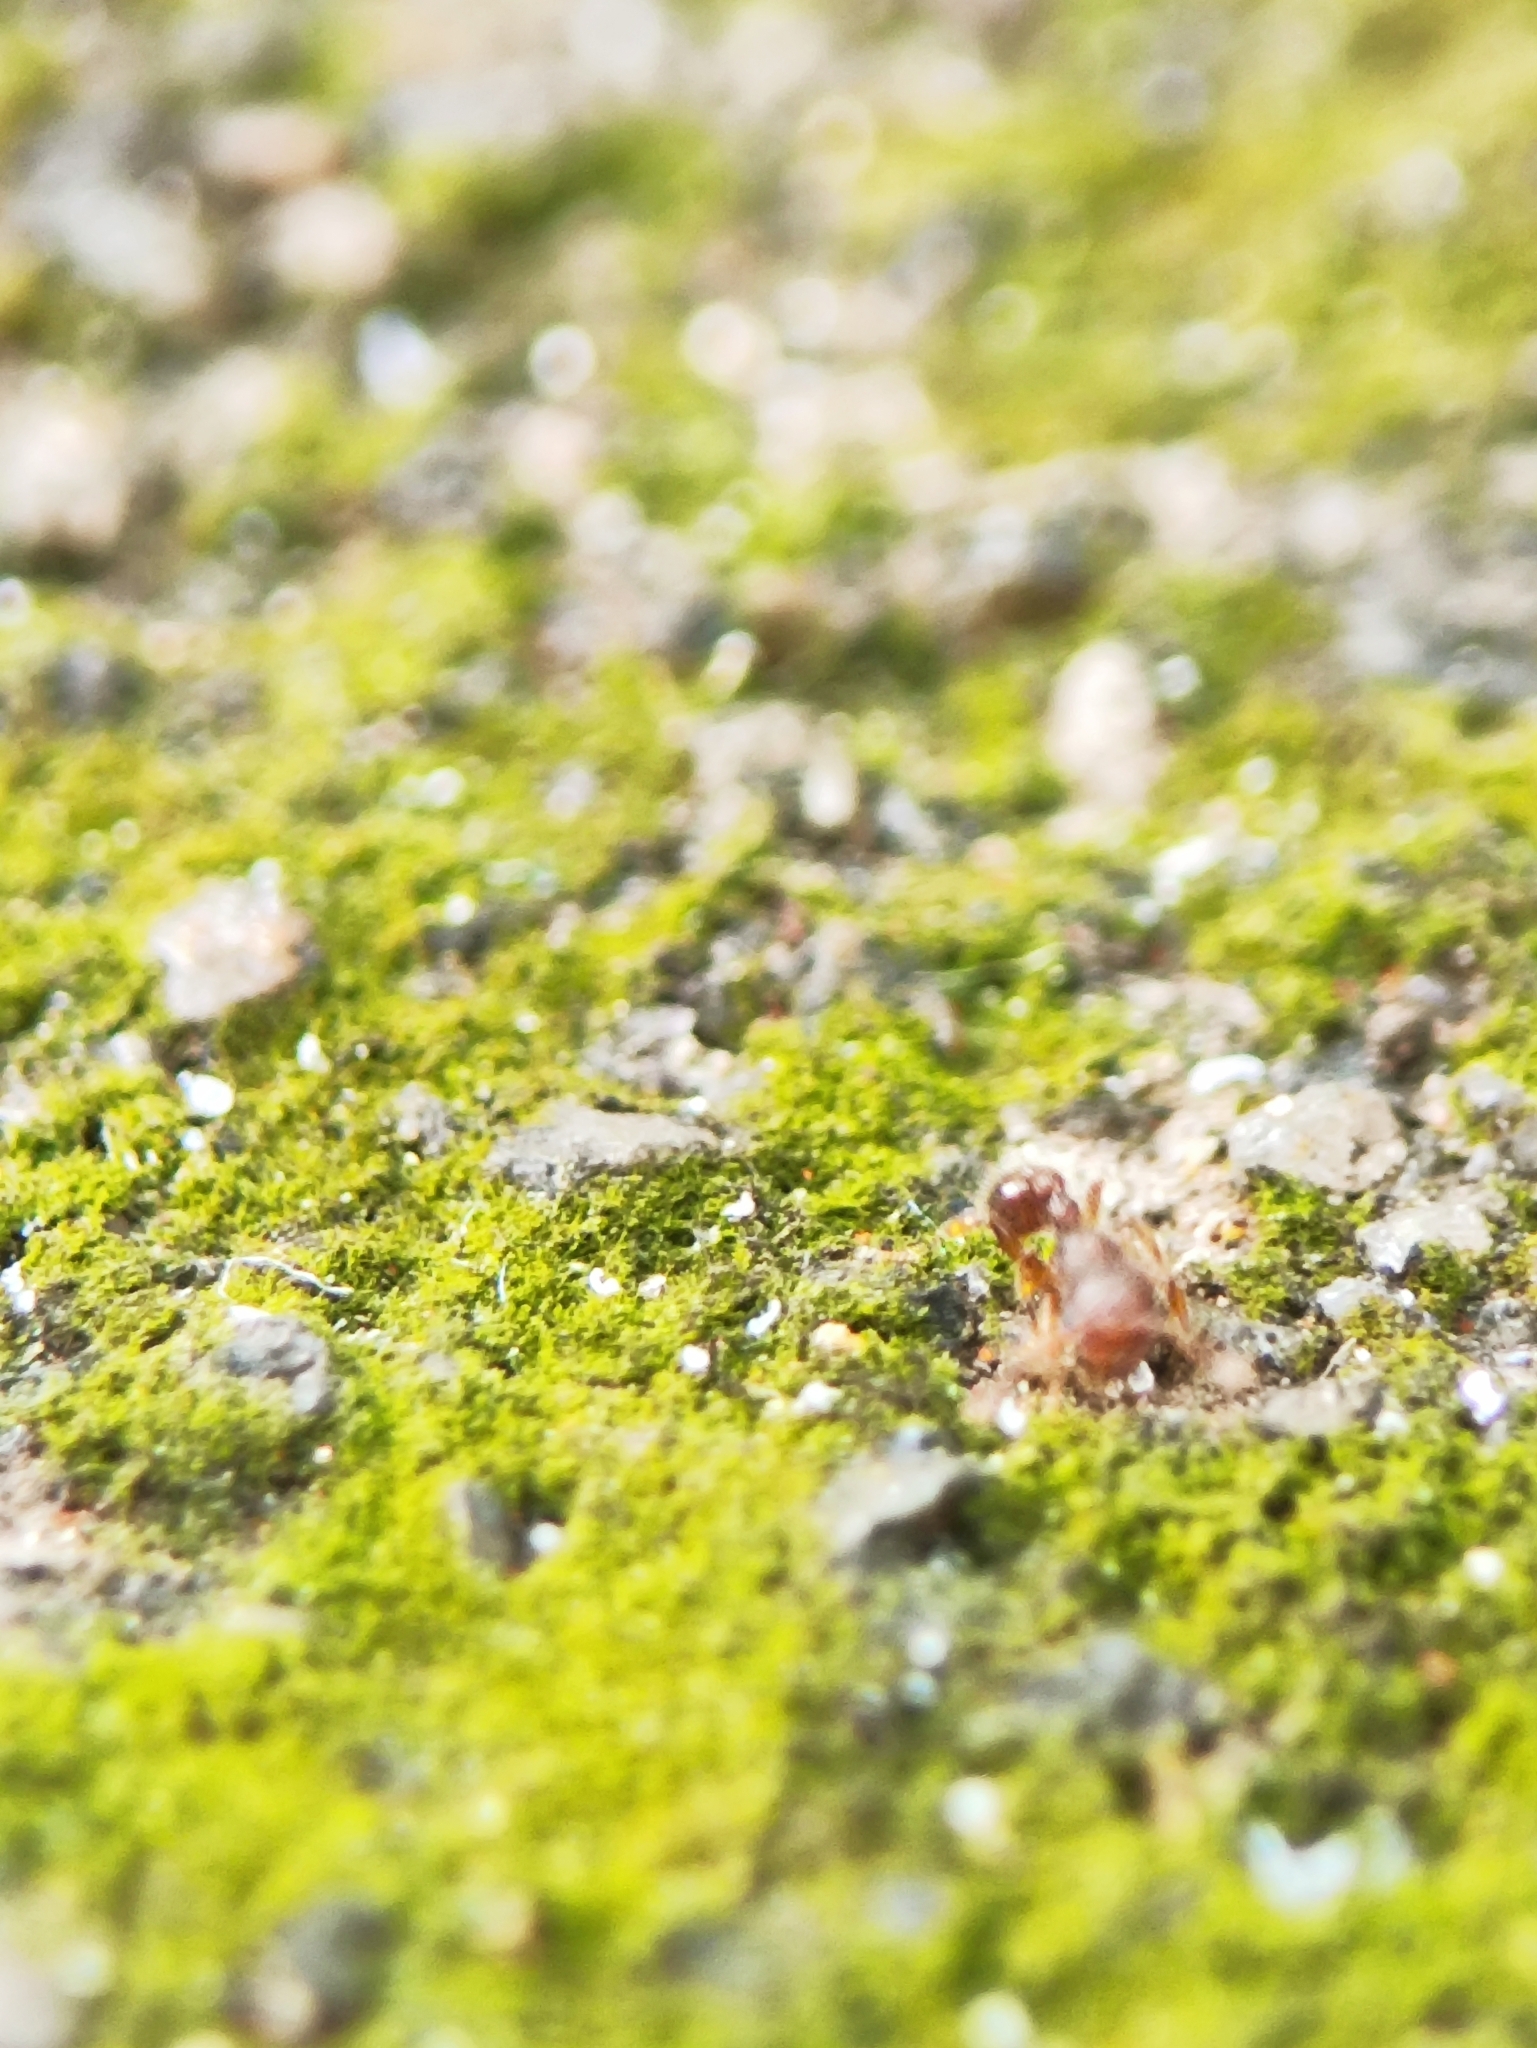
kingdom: Animalia
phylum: Arthropoda
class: Insecta
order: Hymenoptera
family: Formicidae
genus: Tetramorium
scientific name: Tetramorium lanuginosum
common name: Ant
